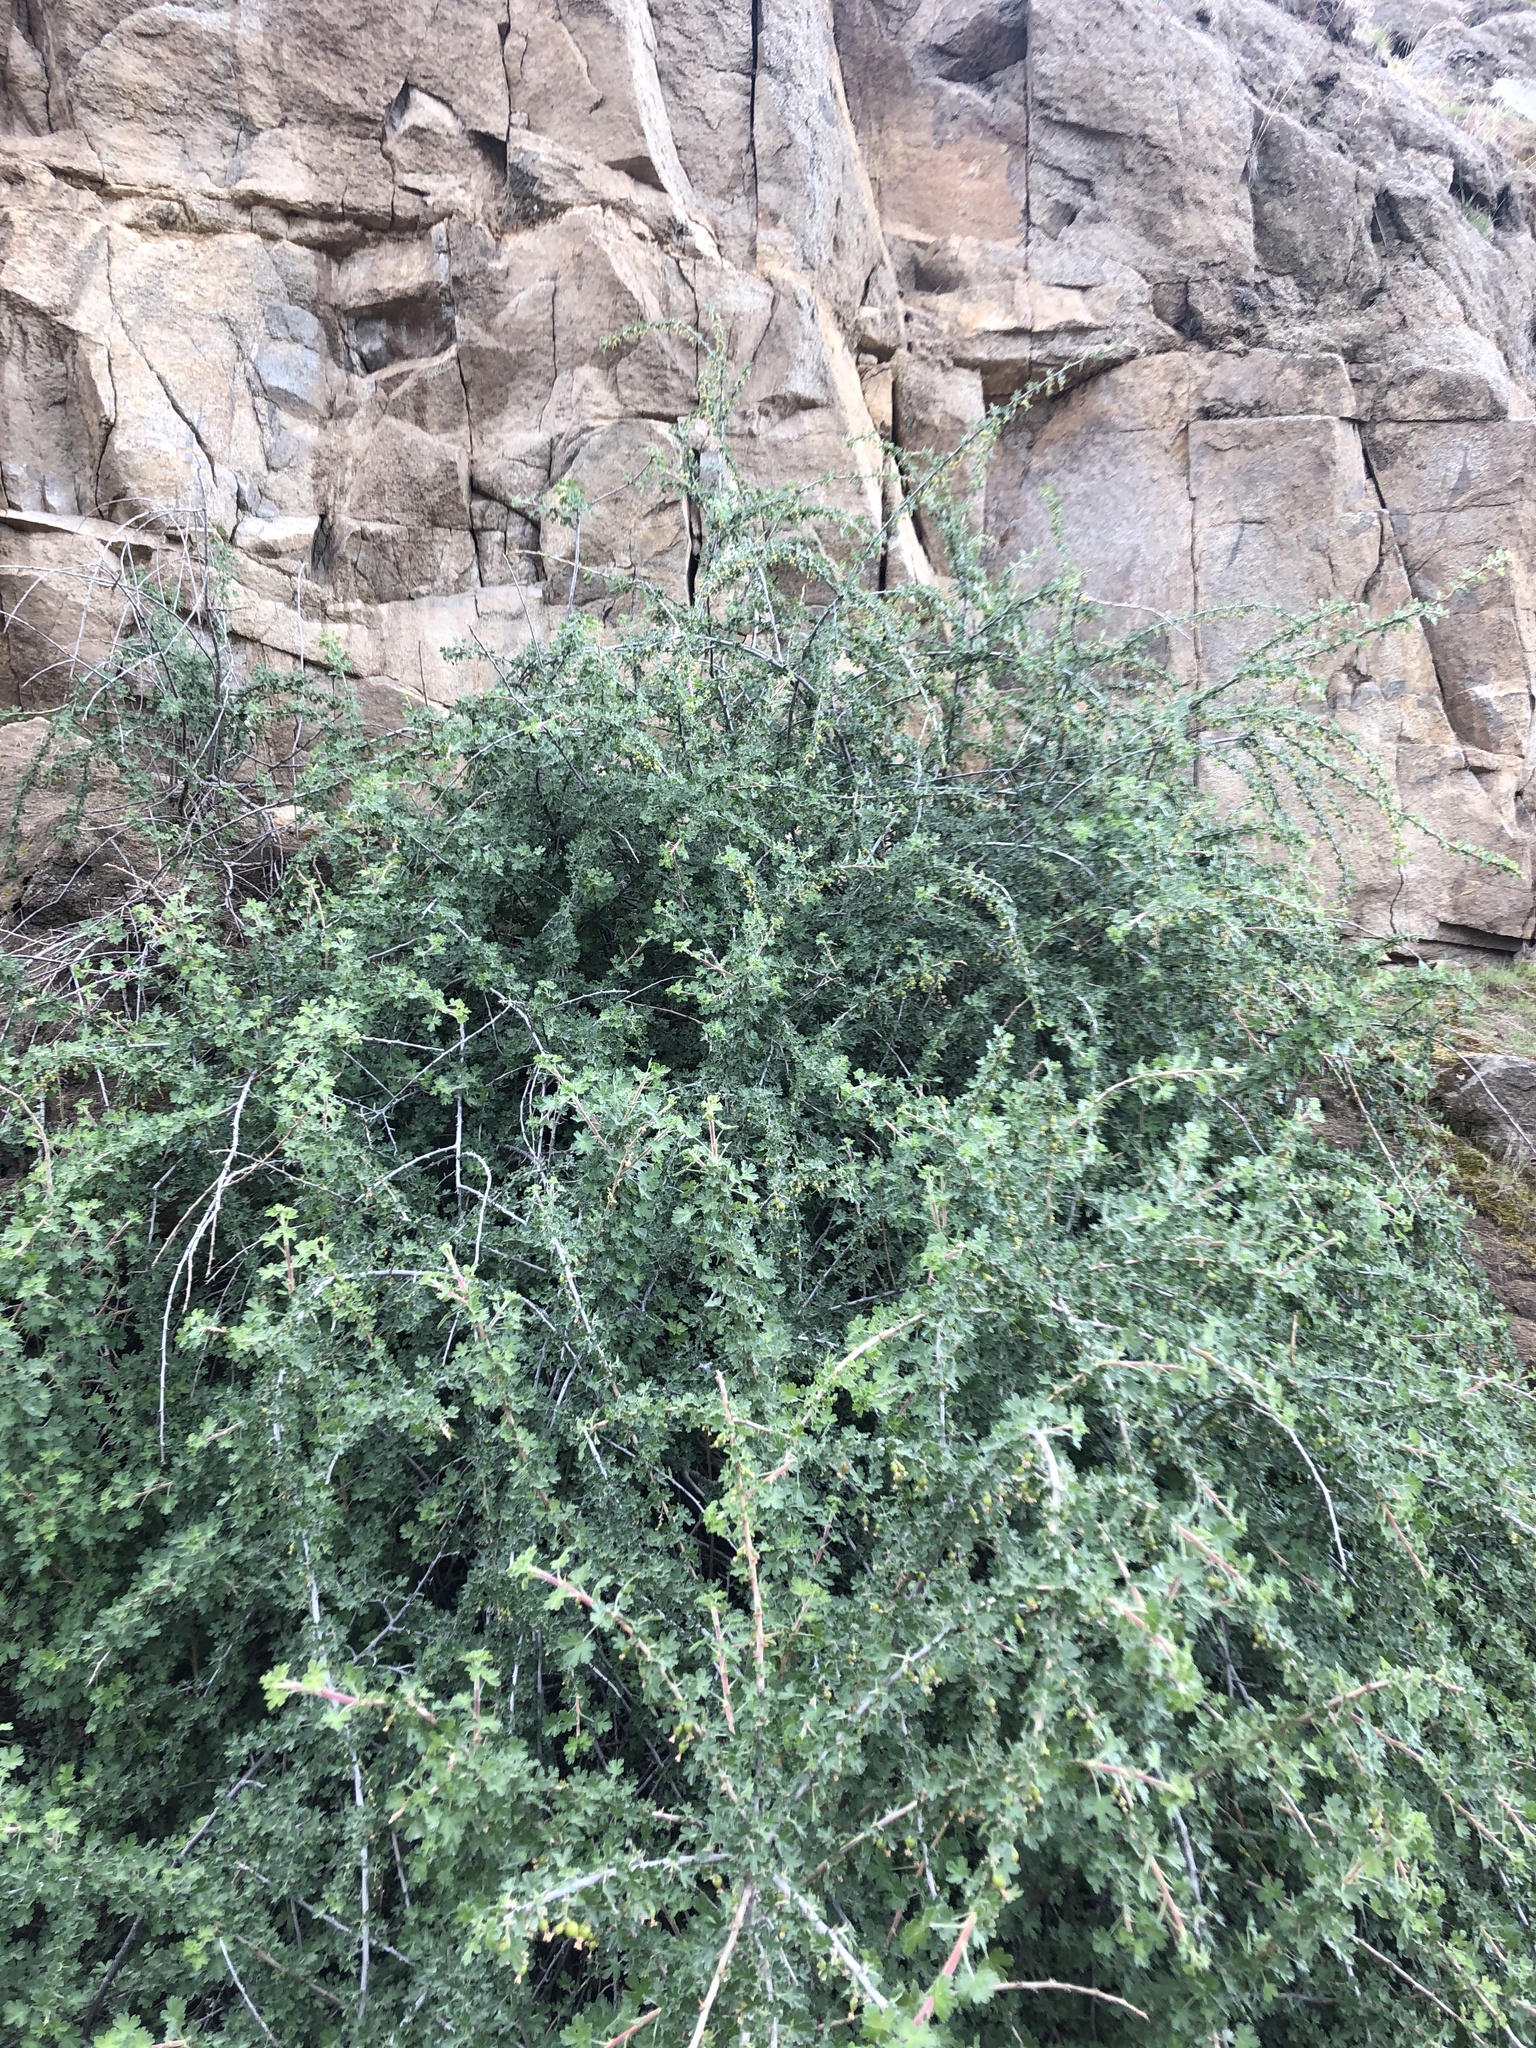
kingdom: Plantae
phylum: Tracheophyta
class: Magnoliopsida
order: Saxifragales
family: Grossulariaceae
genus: Ribes
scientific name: Ribes quercetorum
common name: Oak gooseberry
